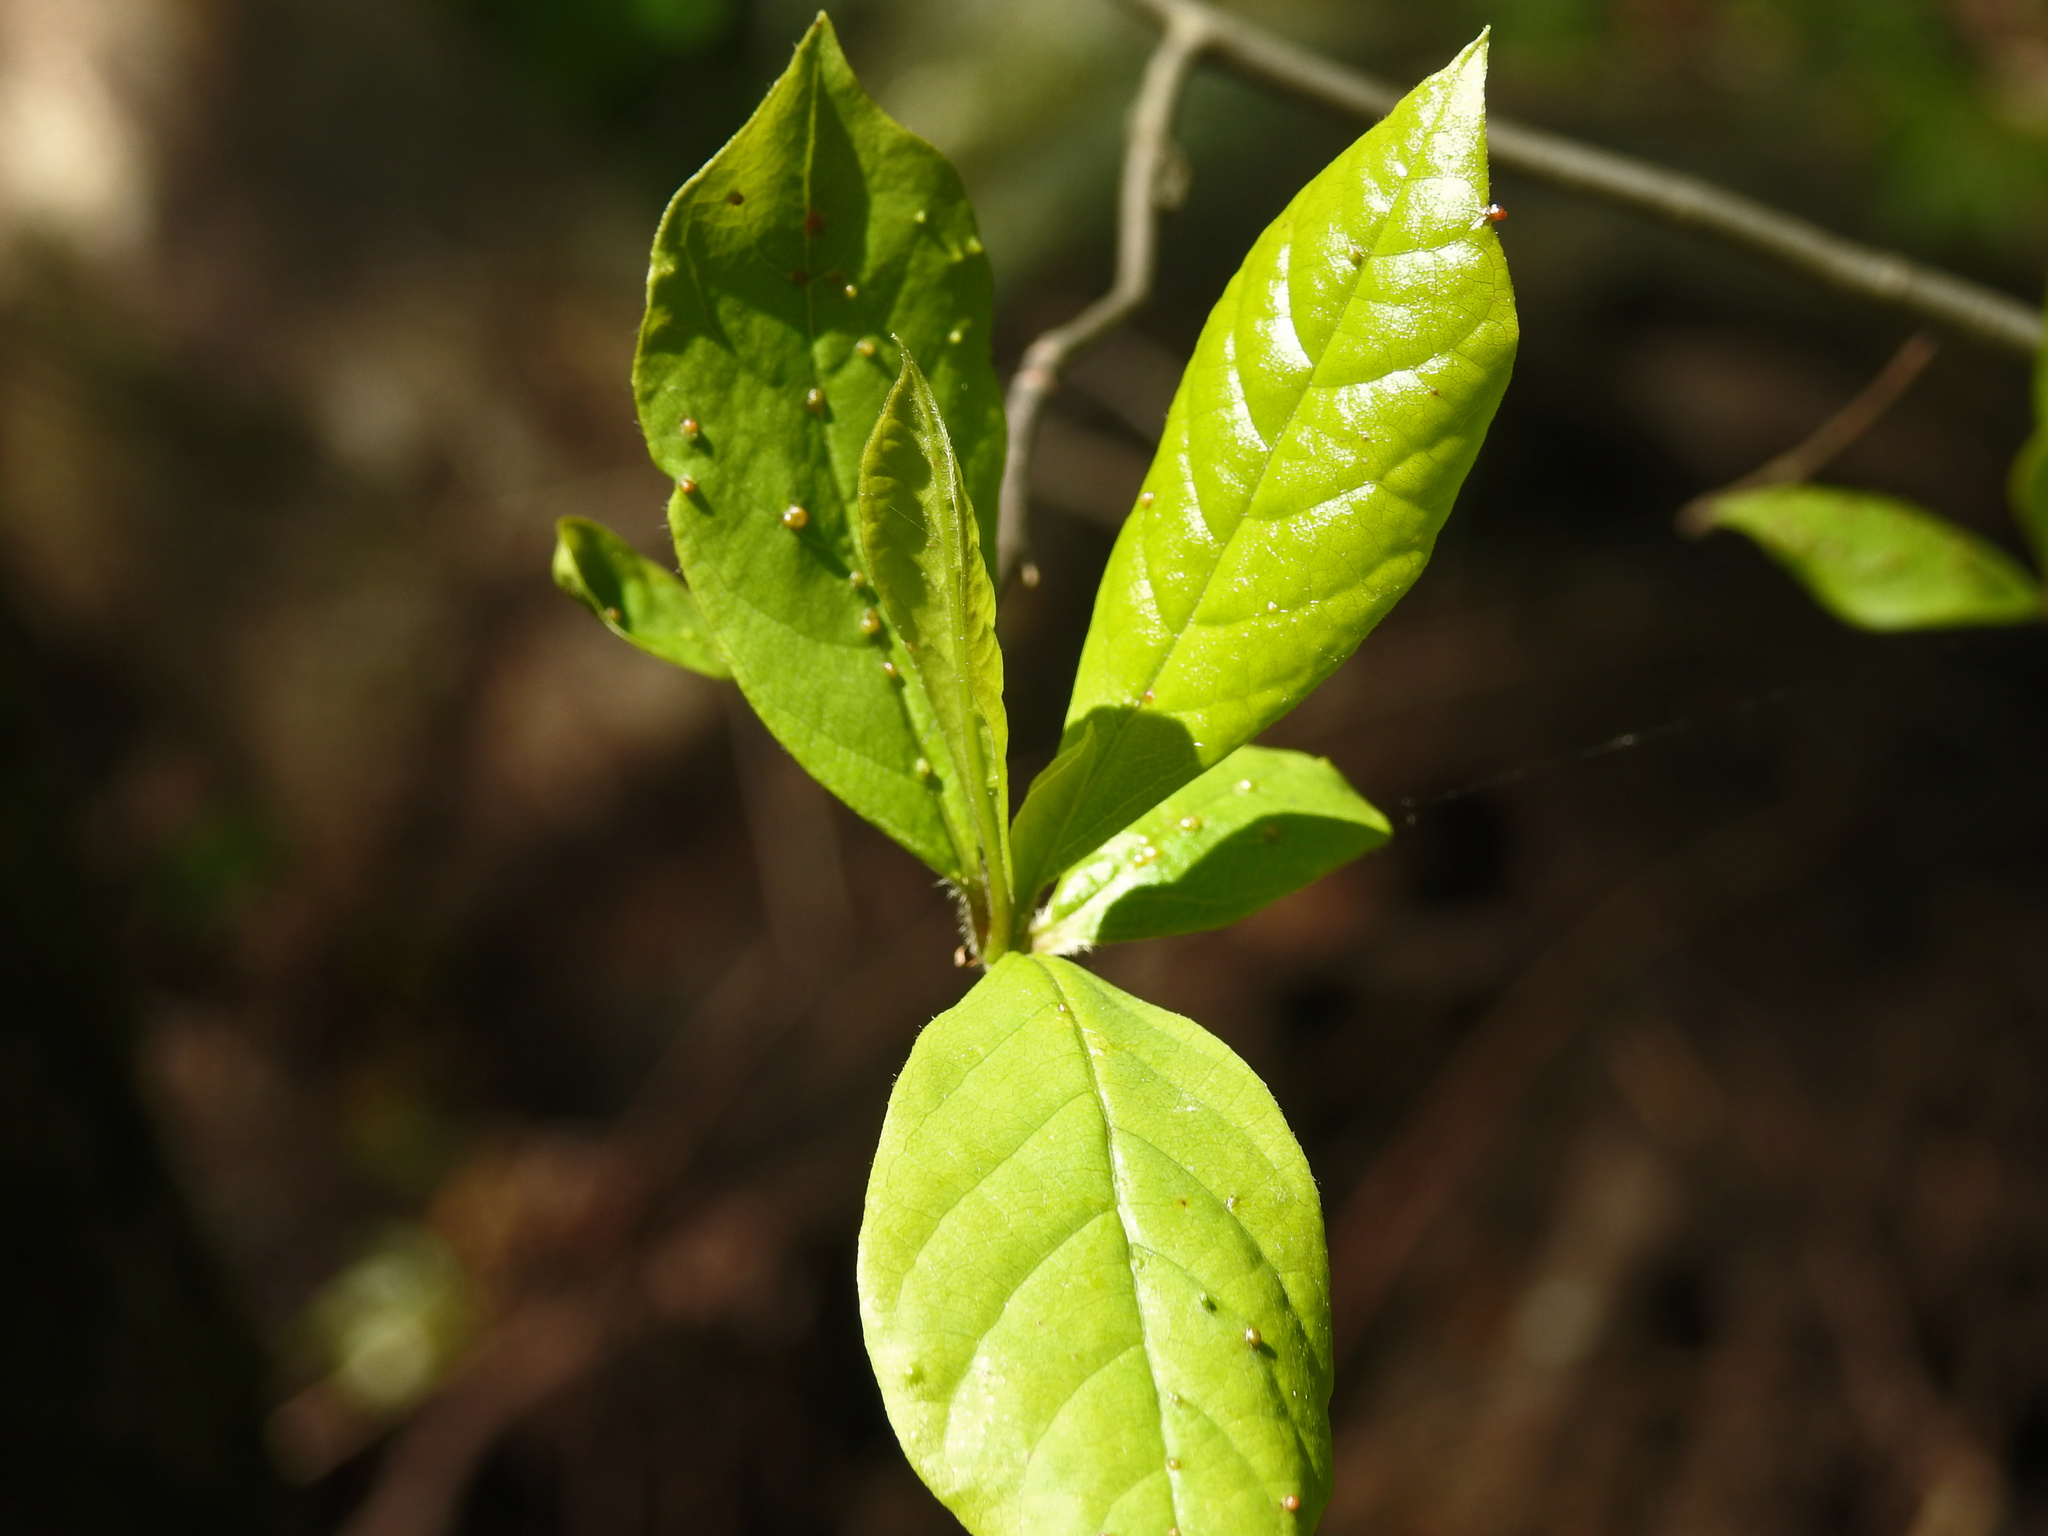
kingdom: Plantae
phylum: Tracheophyta
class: Magnoliopsida
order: Cornales
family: Nyssaceae
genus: Nyssa
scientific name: Nyssa sylvatica
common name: Black tupelo
